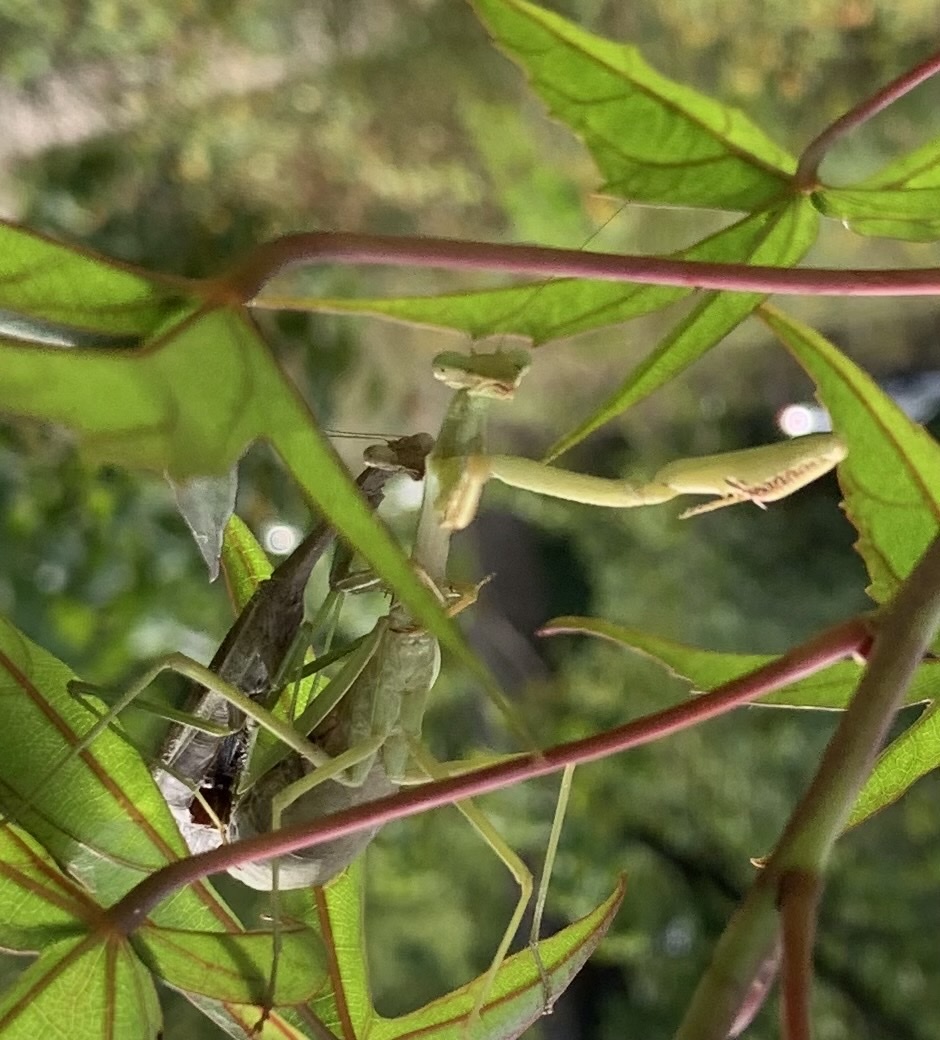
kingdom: Animalia
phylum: Arthropoda
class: Insecta
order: Mantodea
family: Mantidae
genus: Stagmomantis
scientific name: Stagmomantis carolina
